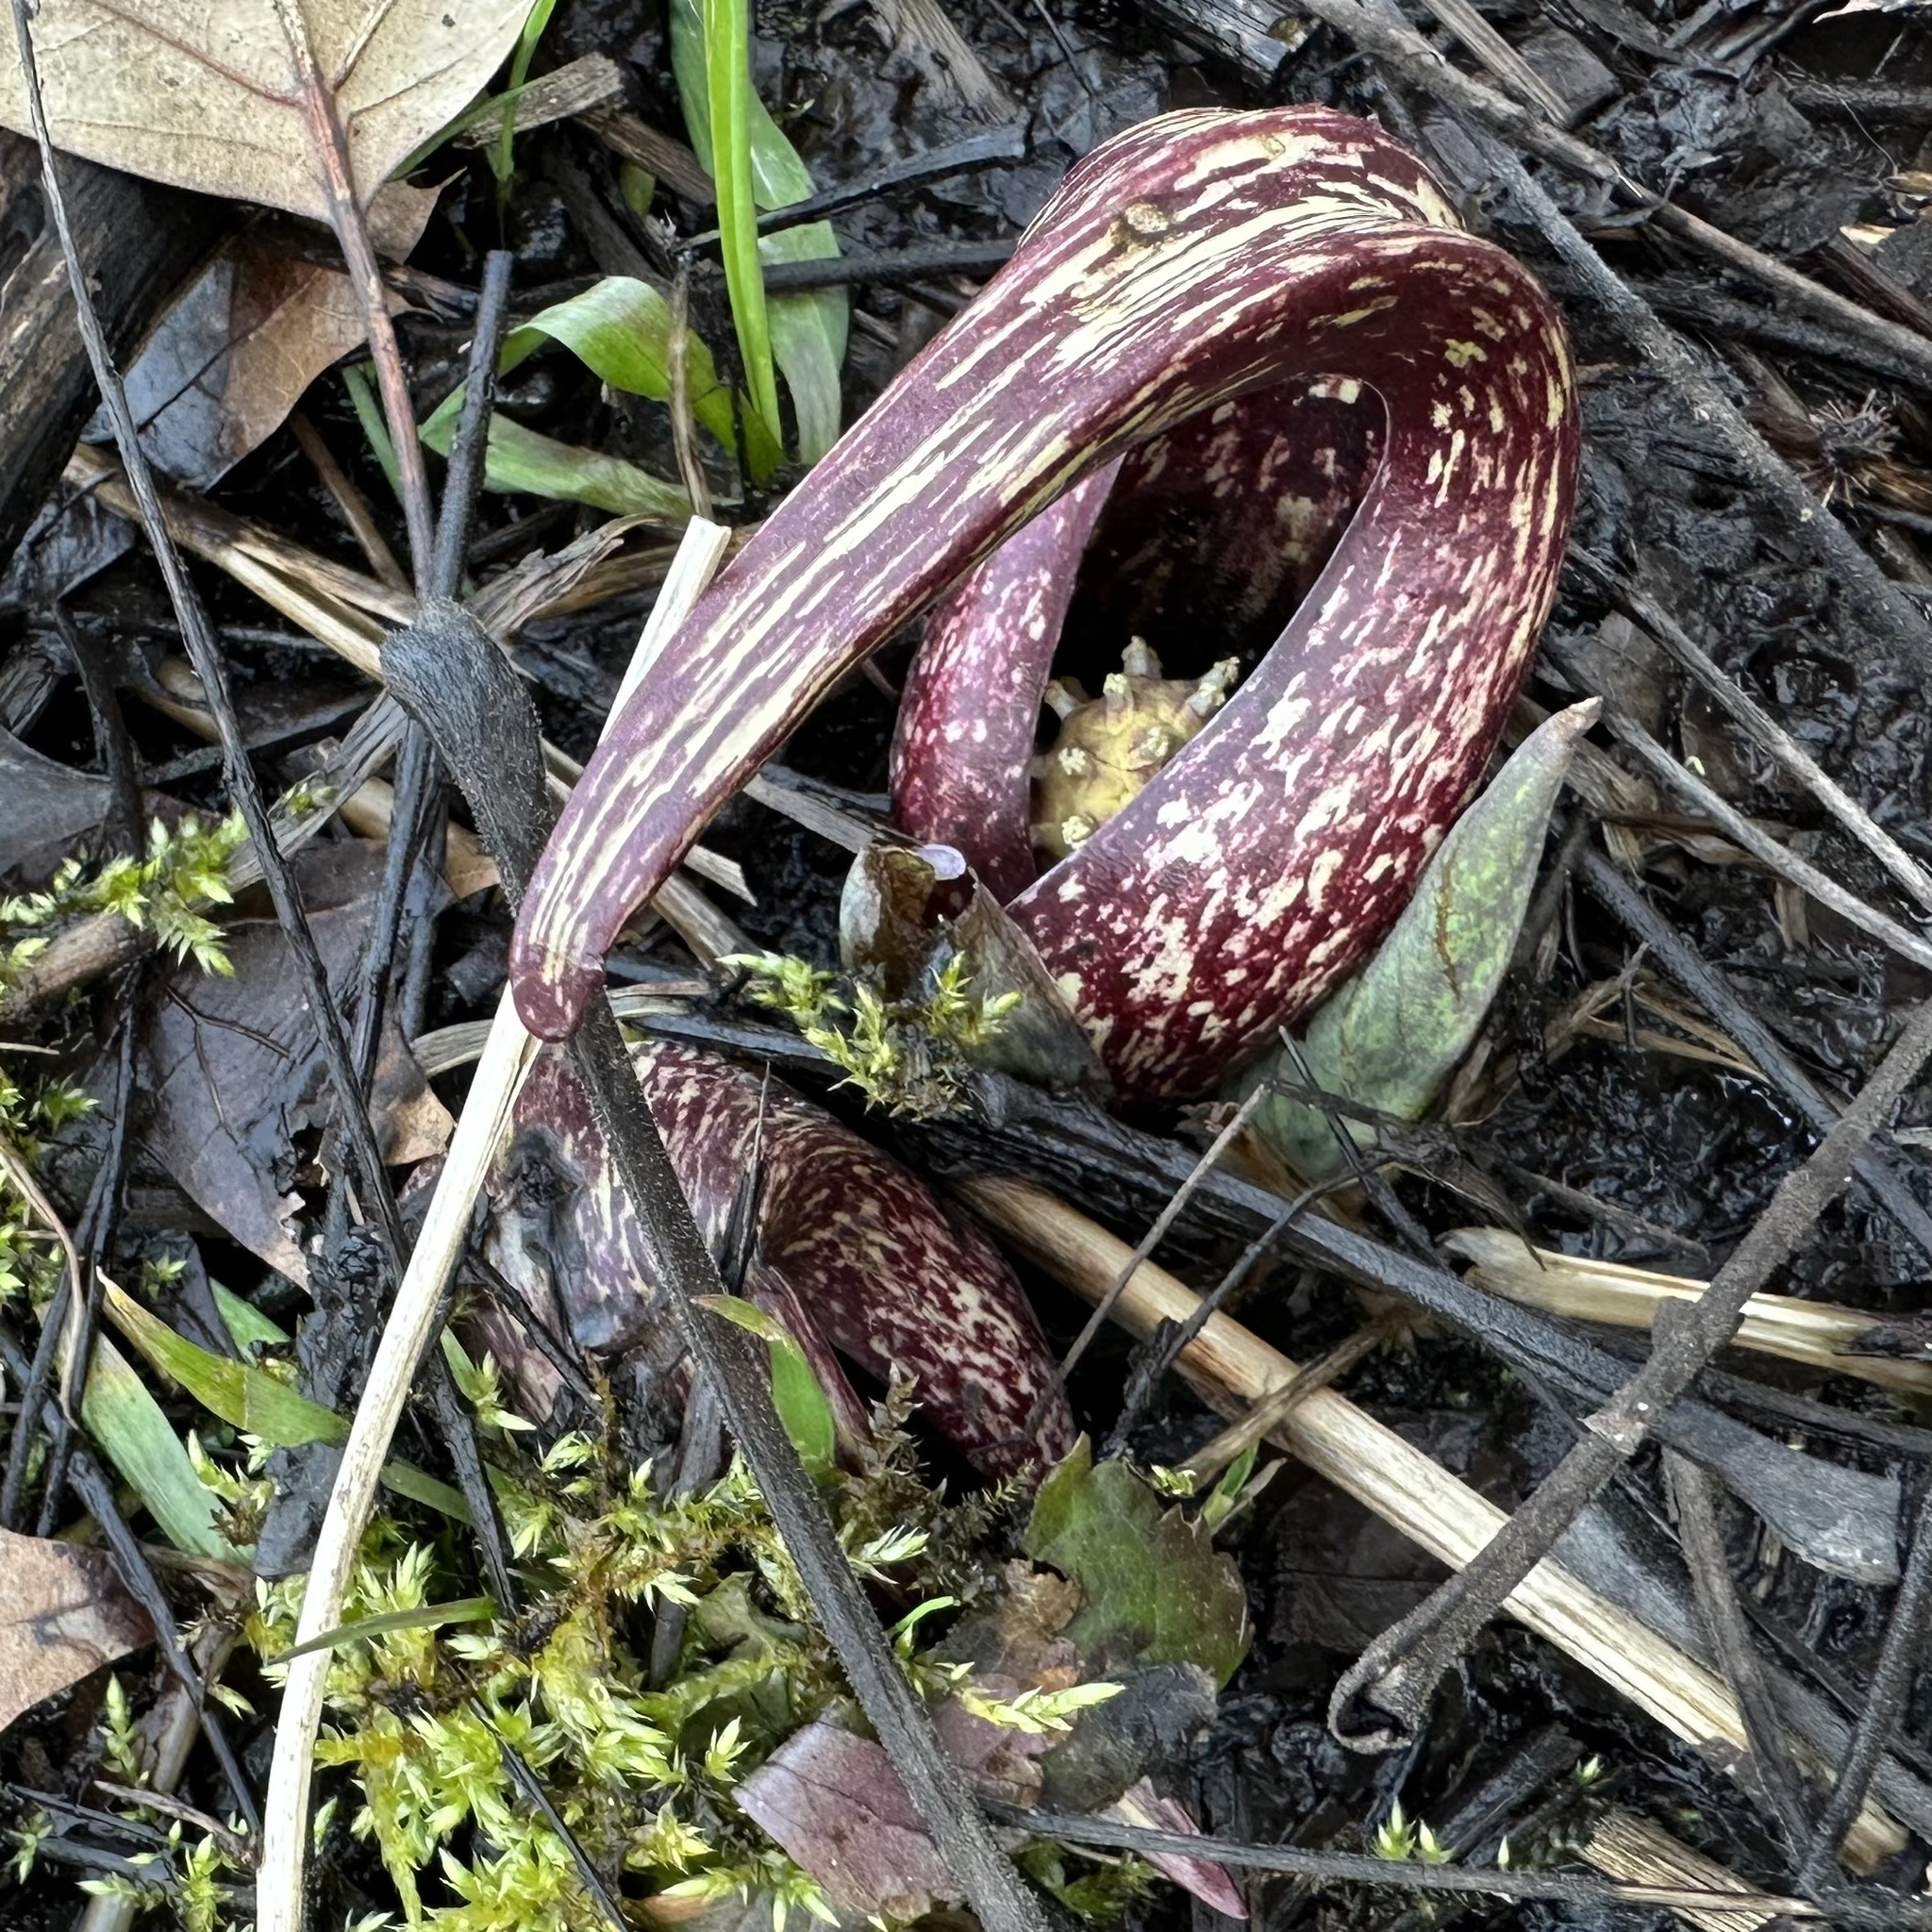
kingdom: Plantae
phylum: Tracheophyta
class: Liliopsida
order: Alismatales
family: Araceae
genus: Symplocarpus
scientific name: Symplocarpus foetidus
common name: Eastern skunk cabbage
